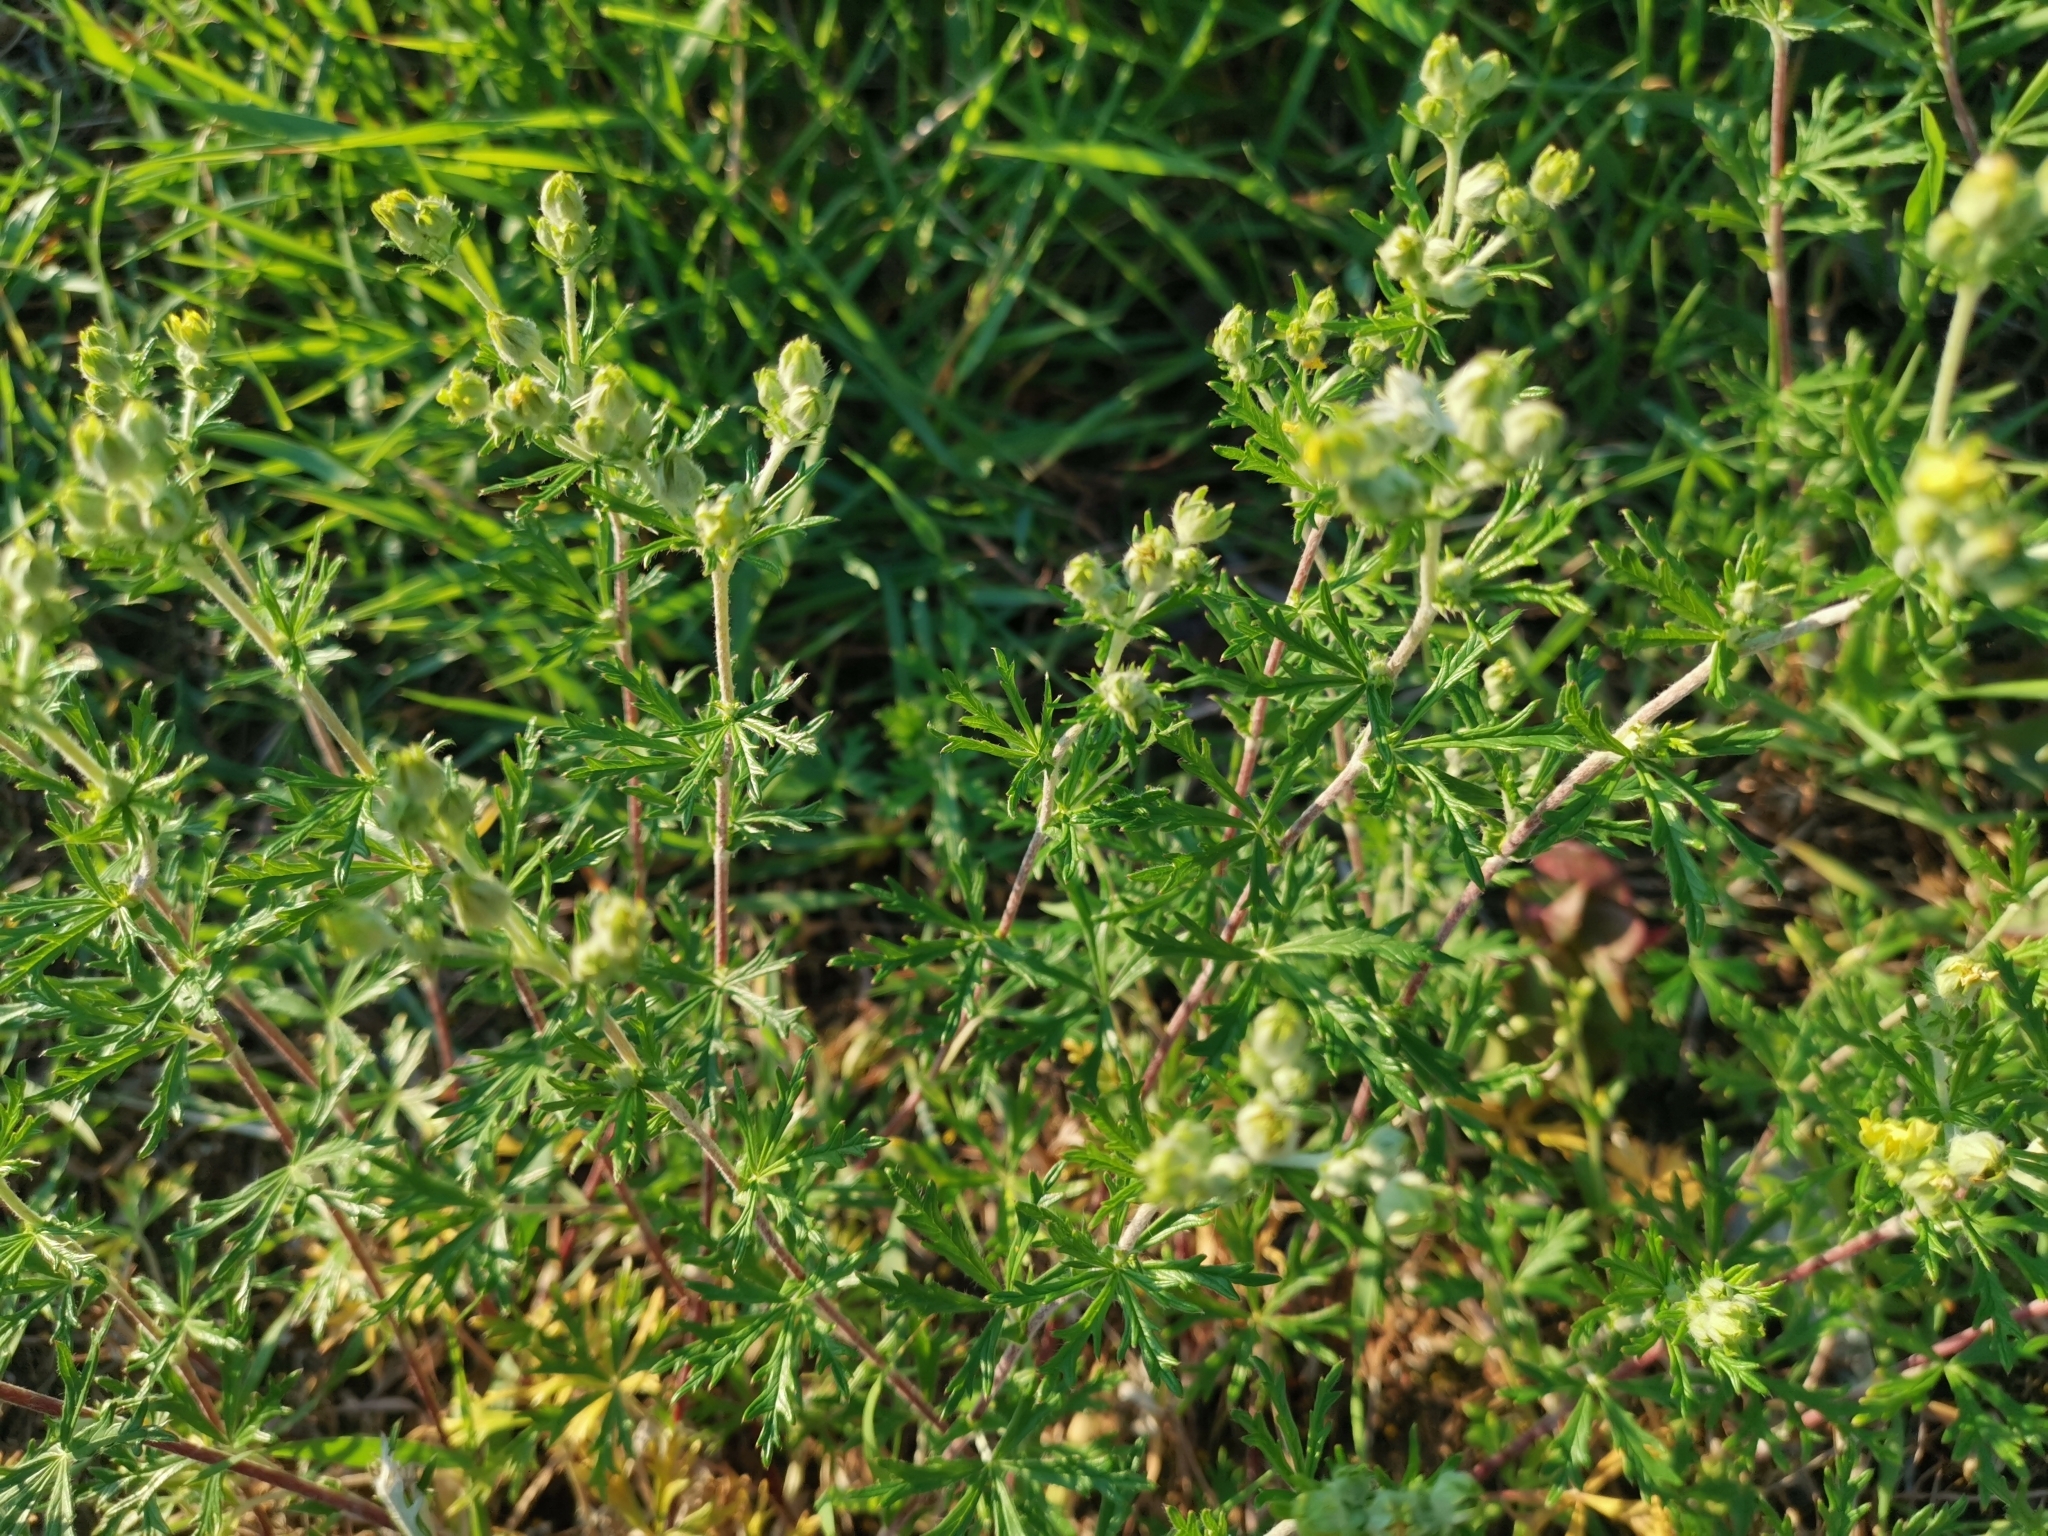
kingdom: Plantae
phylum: Tracheophyta
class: Magnoliopsida
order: Rosales
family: Rosaceae
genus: Potentilla
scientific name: Potentilla argentea
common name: Hoary cinquefoil
